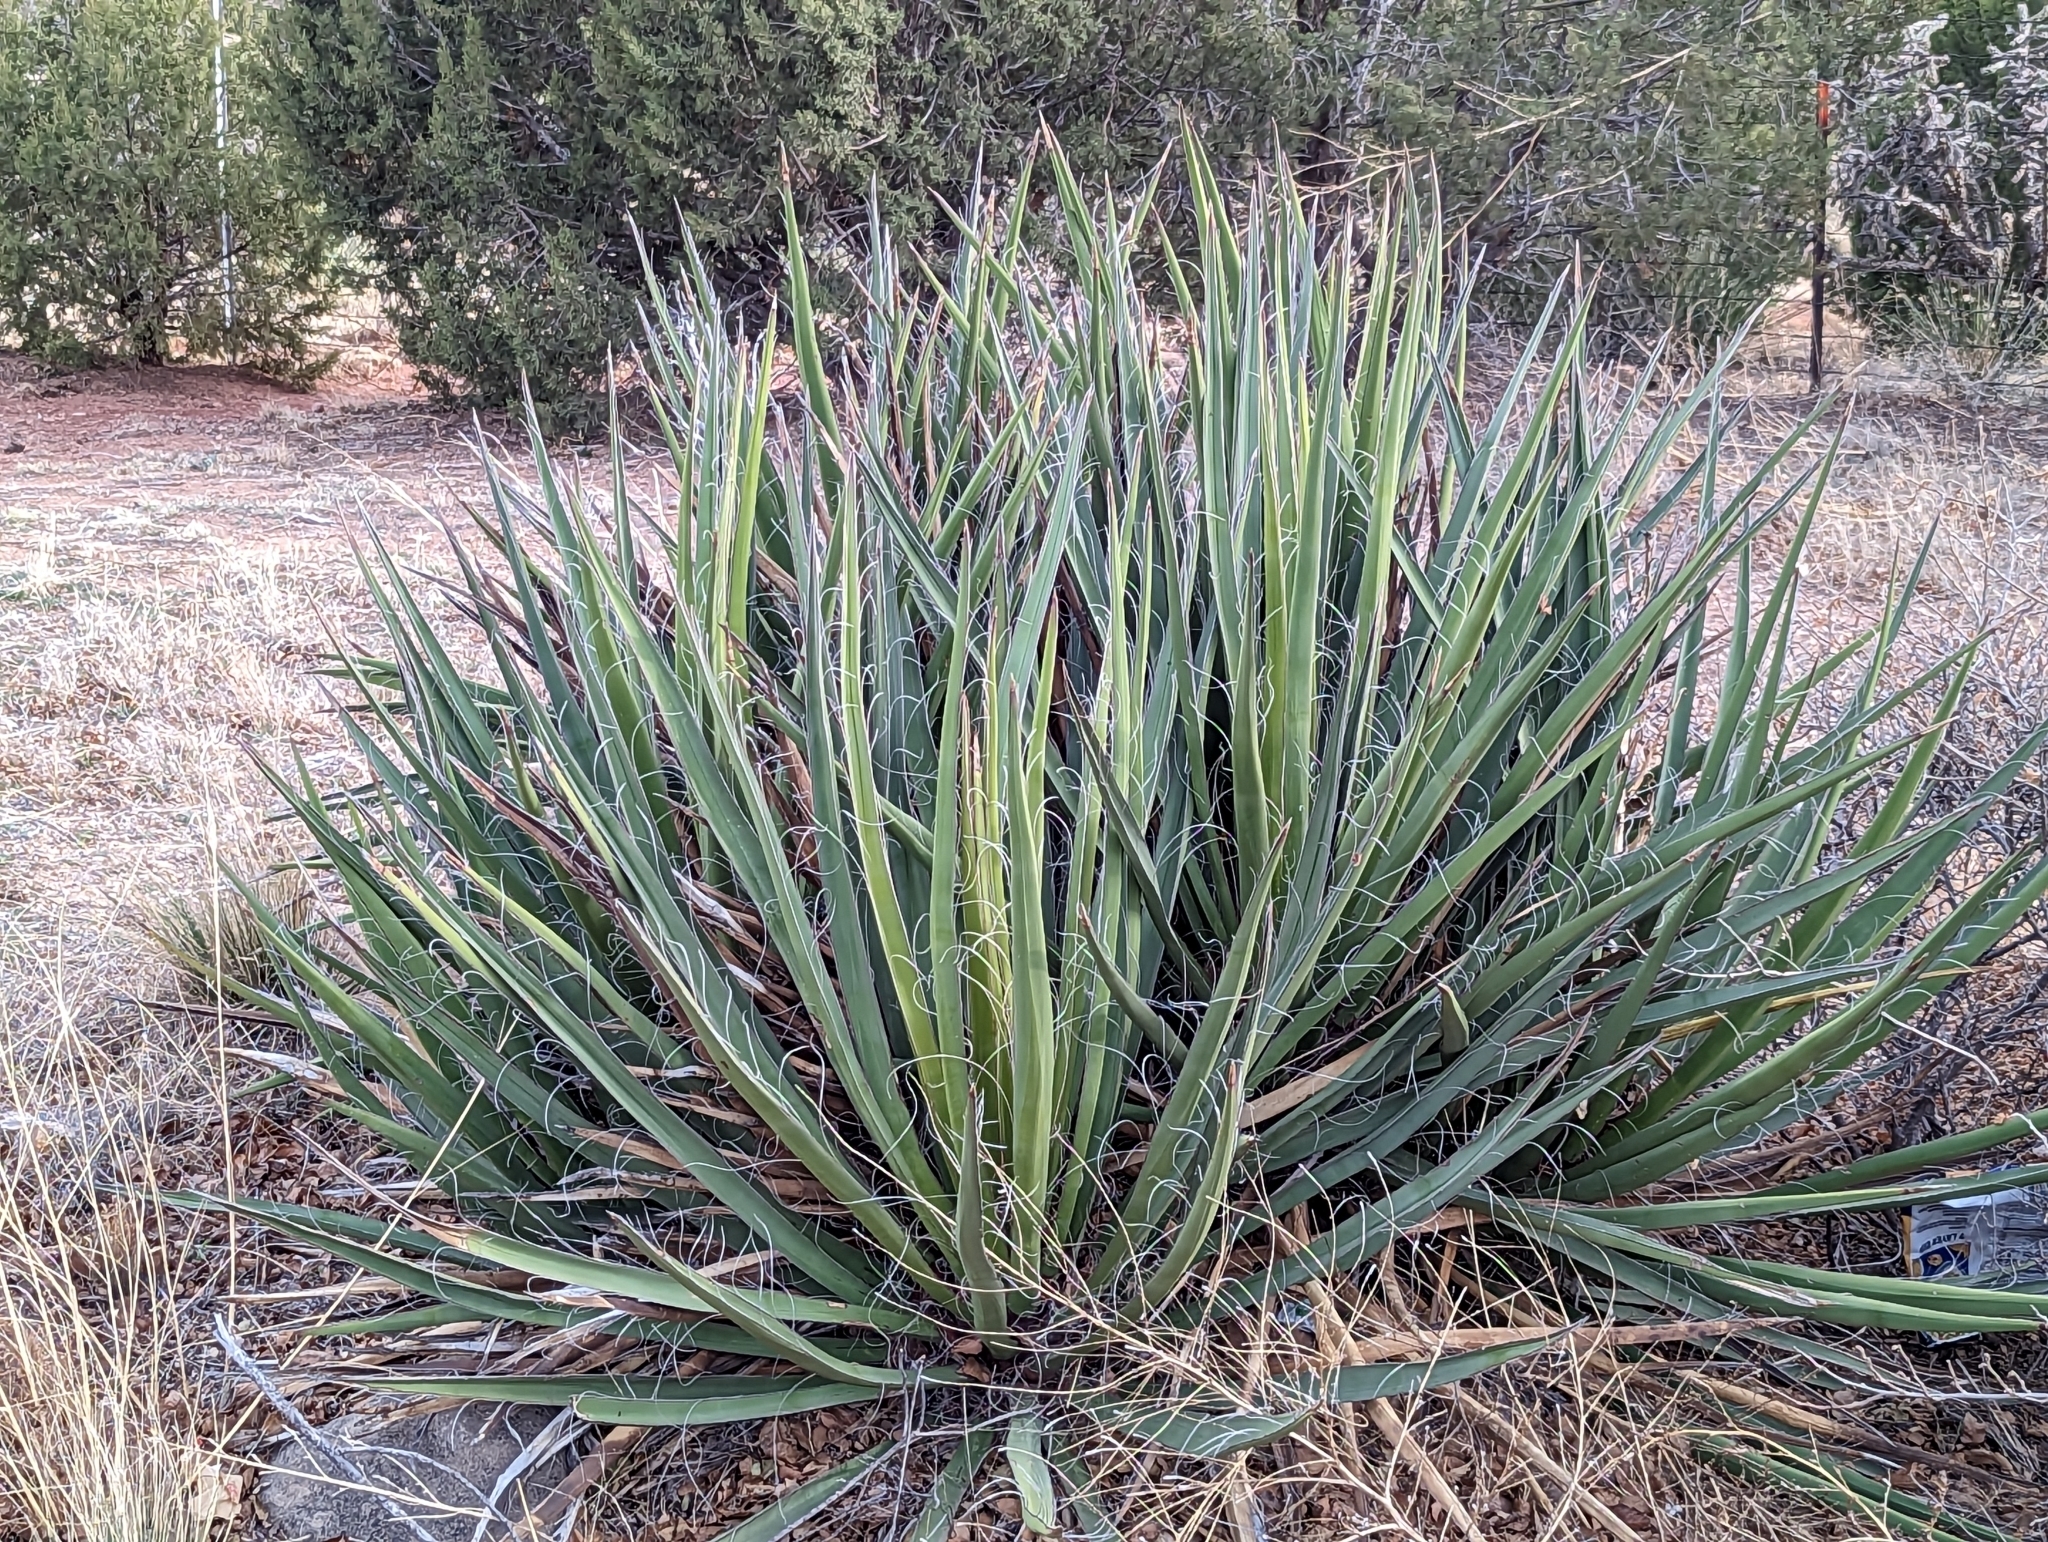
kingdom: Plantae
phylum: Tracheophyta
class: Liliopsida
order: Asparagales
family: Asparagaceae
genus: Yucca
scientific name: Yucca baccata
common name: Banana yucca
